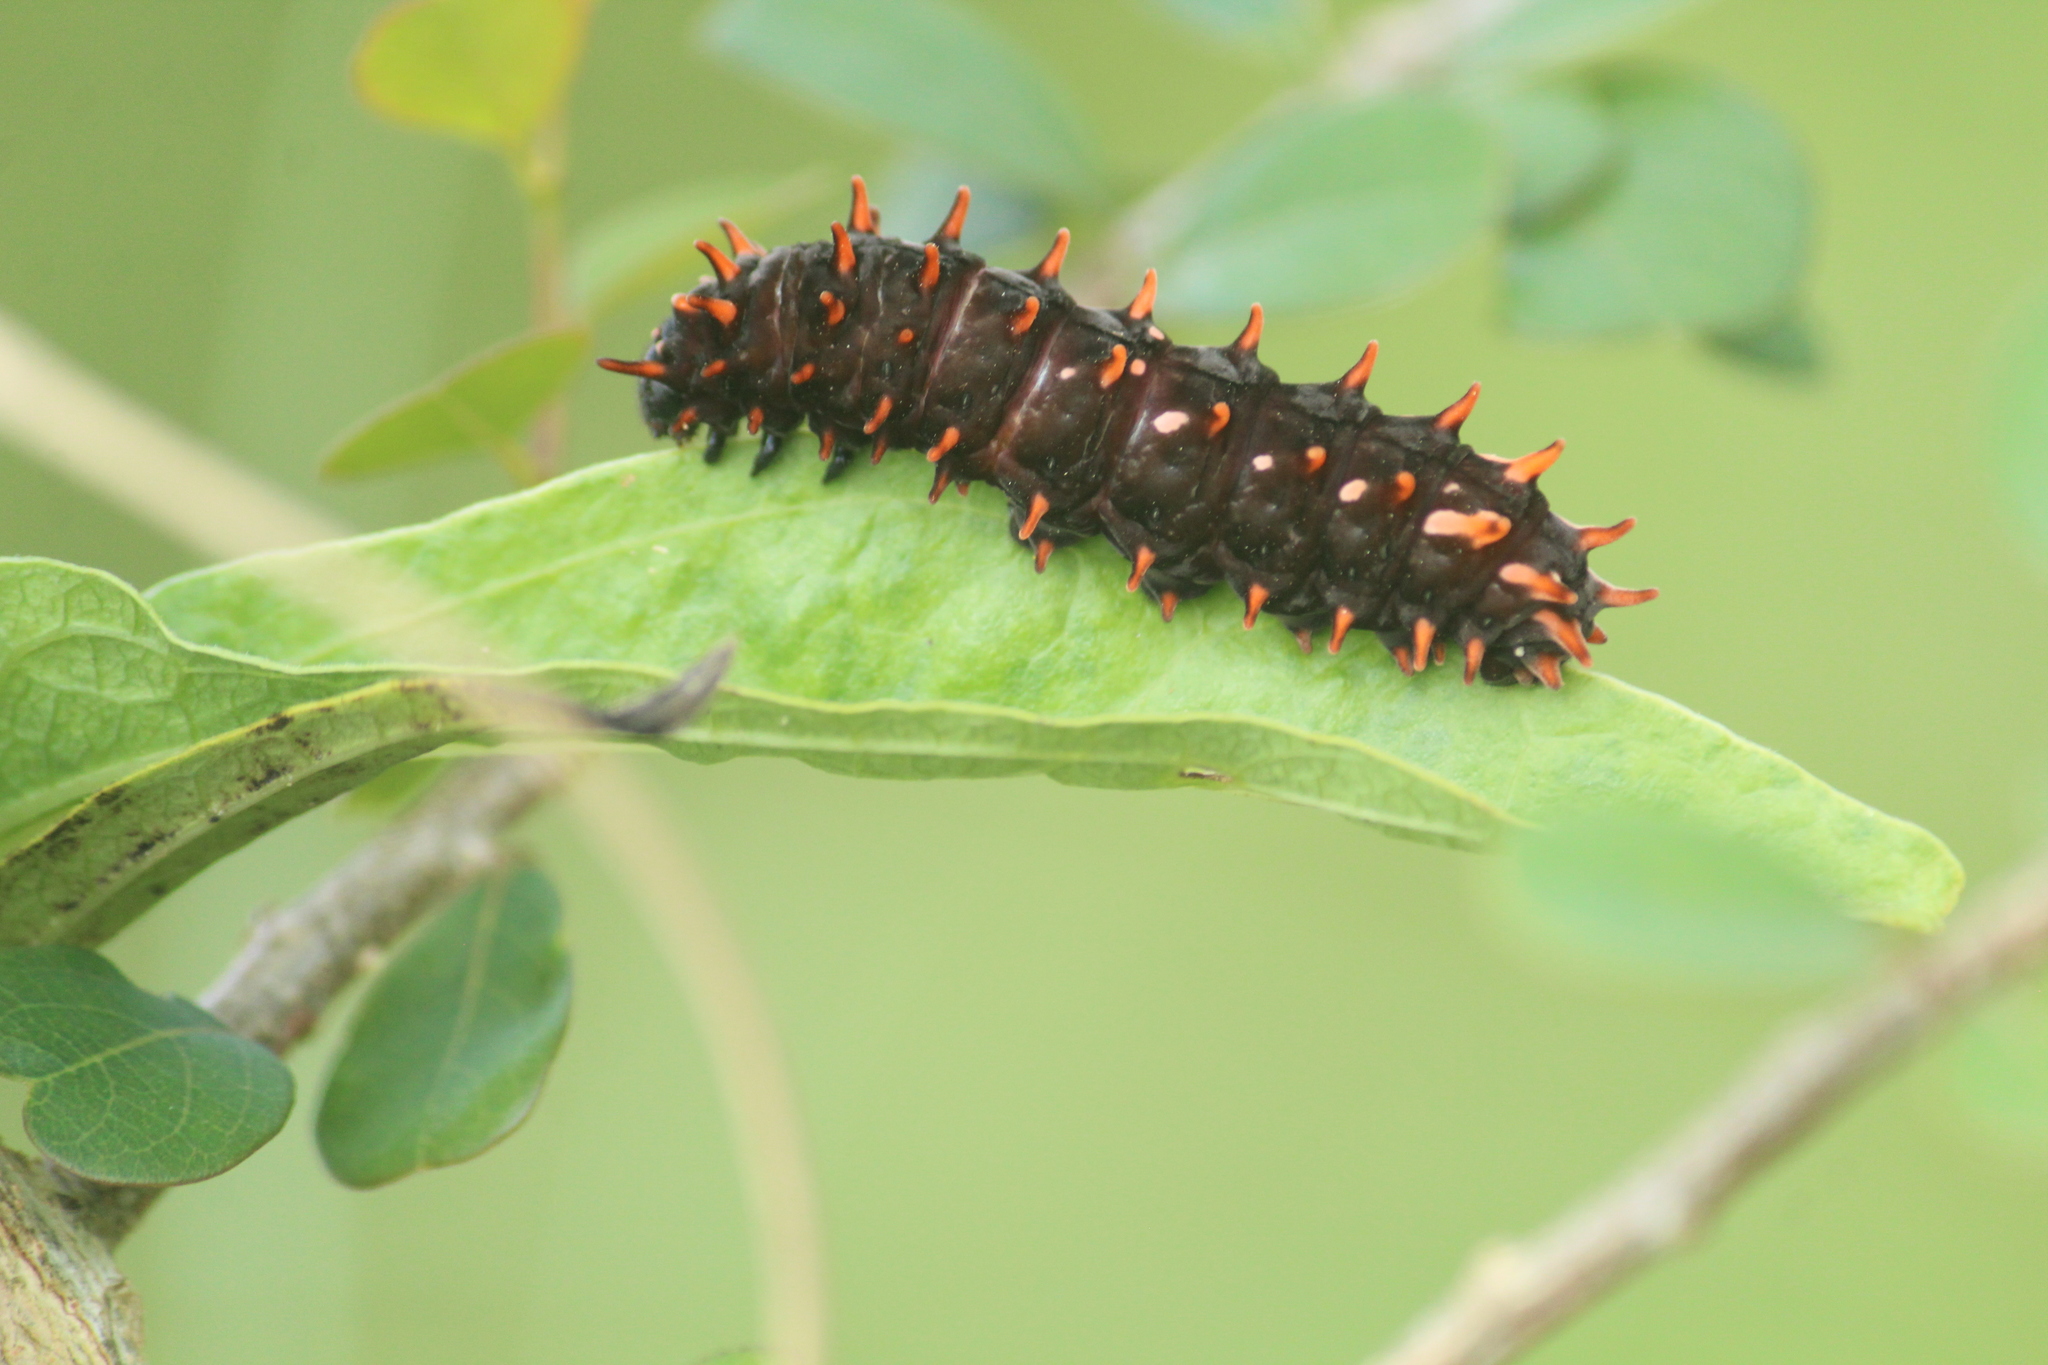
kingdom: Animalia
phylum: Arthropoda
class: Insecta
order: Lepidoptera
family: Papilionidae
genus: Pachliopta
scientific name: Pachliopta hector
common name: Crimson rose
